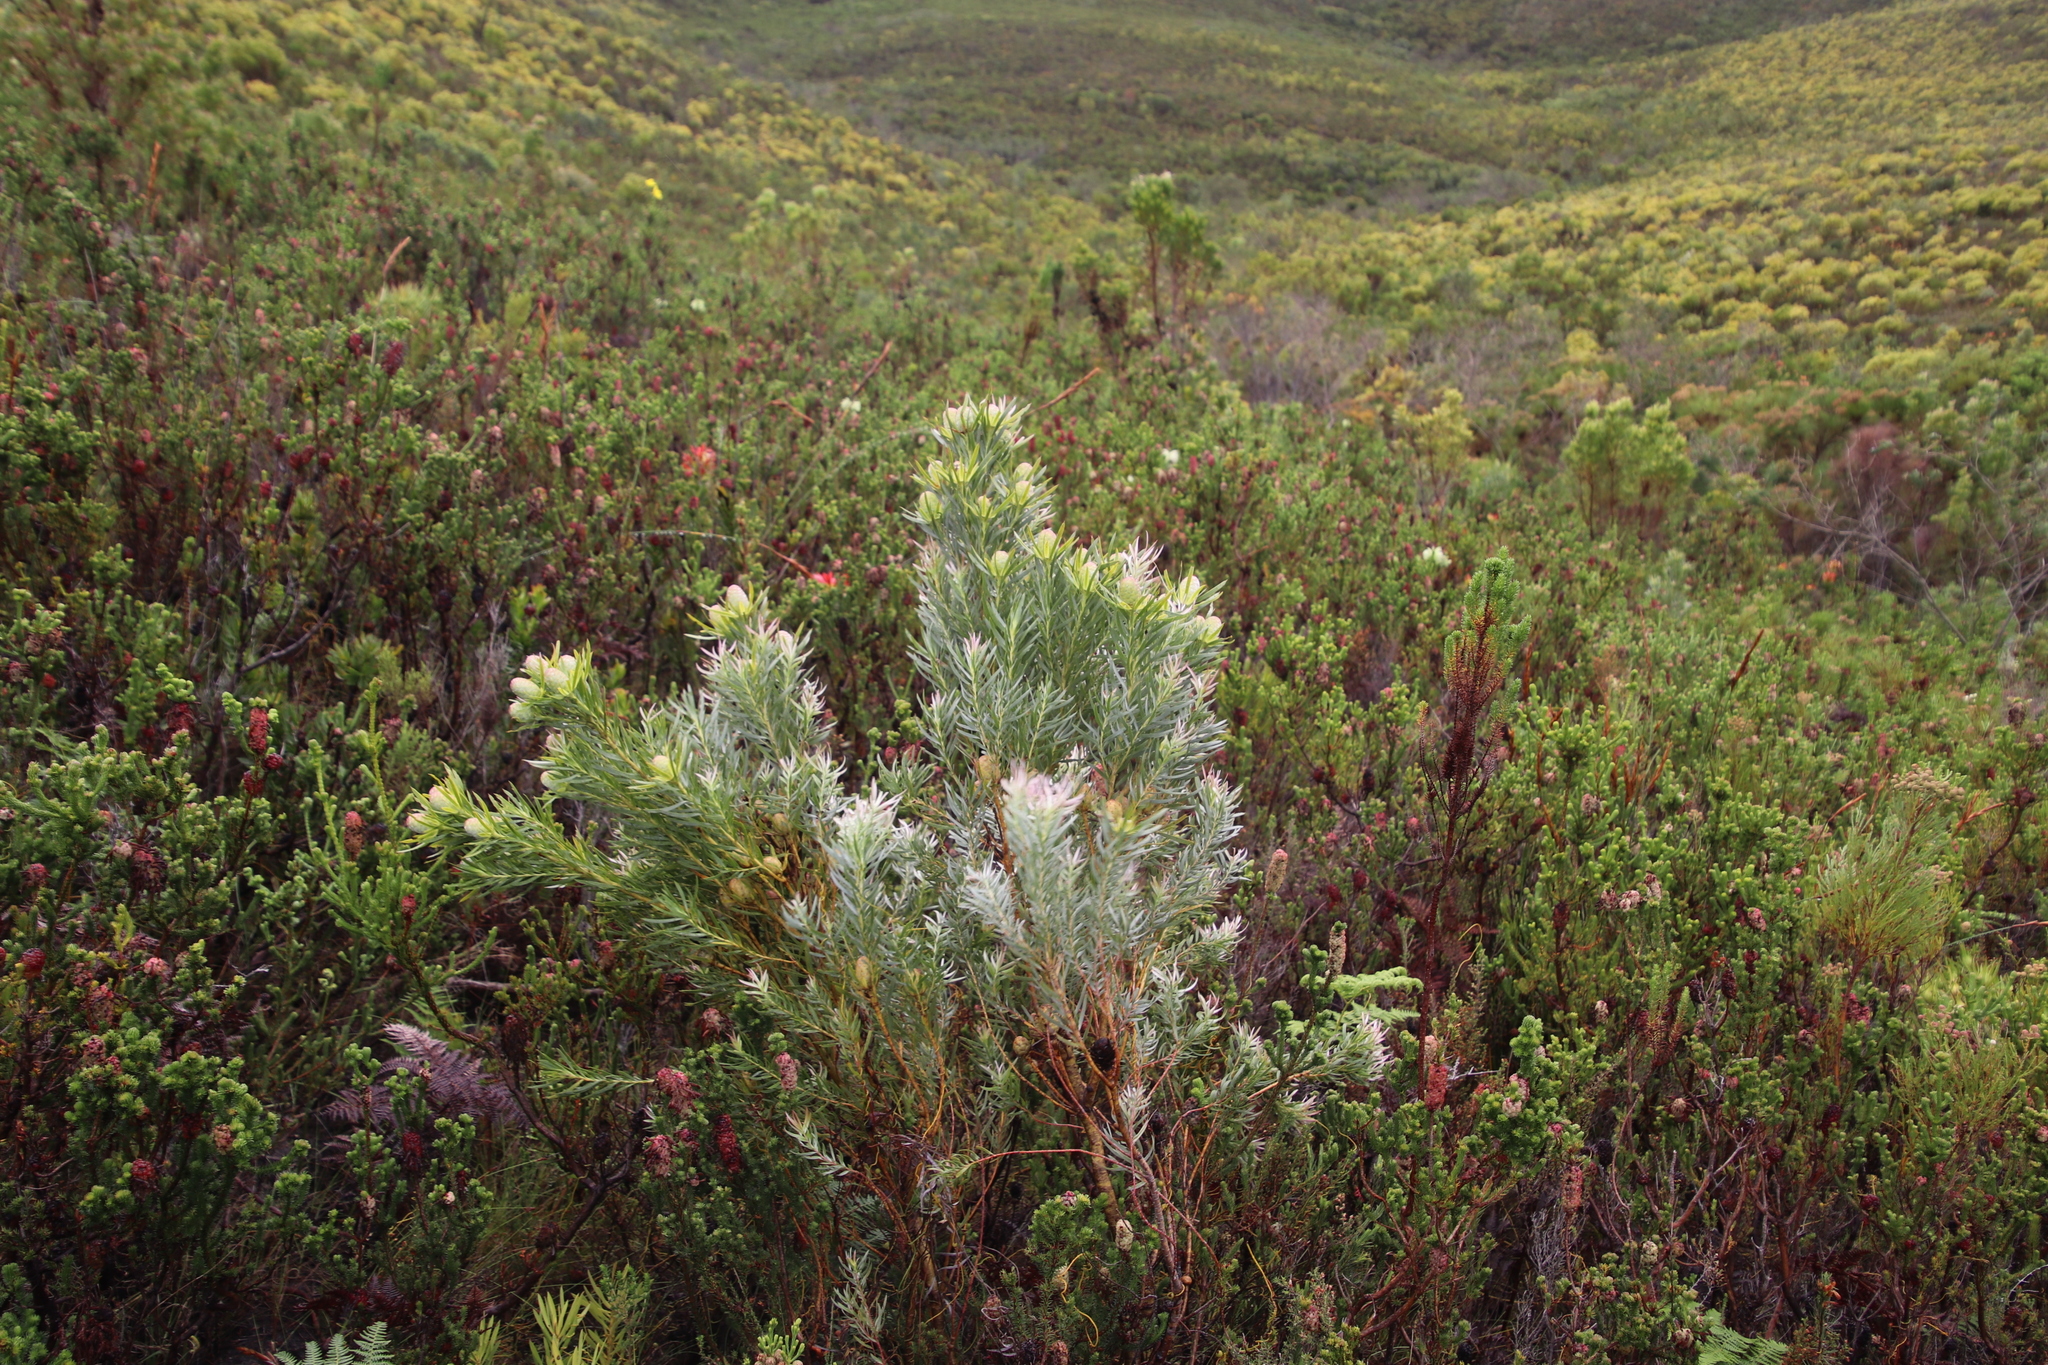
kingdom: Plantae
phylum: Tracheophyta
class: Magnoliopsida
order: Proteales
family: Proteaceae
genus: Leucadendron
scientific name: Leucadendron xanthoconus
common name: Sickle-leaf conebush
